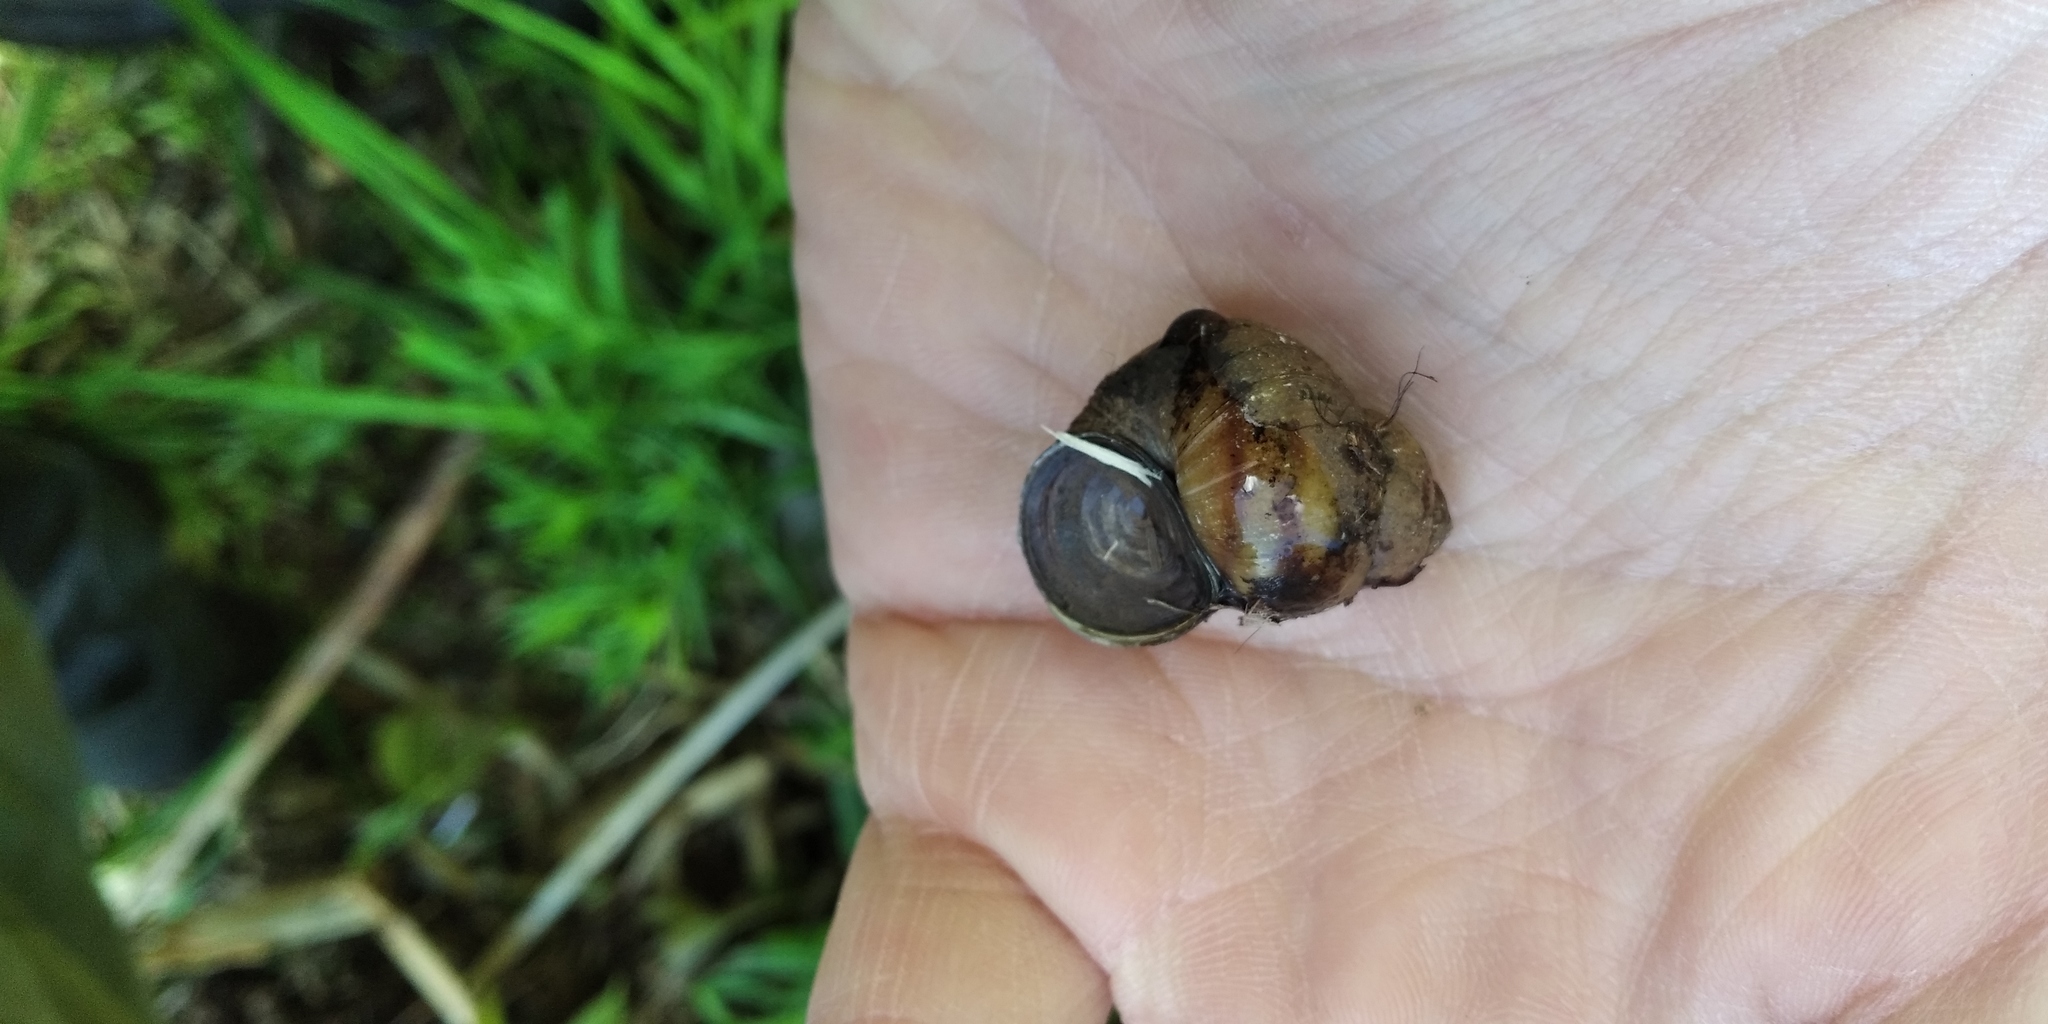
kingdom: Animalia
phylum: Mollusca
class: Gastropoda
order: Architaenioglossa
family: Viviparidae
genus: Viviparus
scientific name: Viviparus viviparus
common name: River snail
